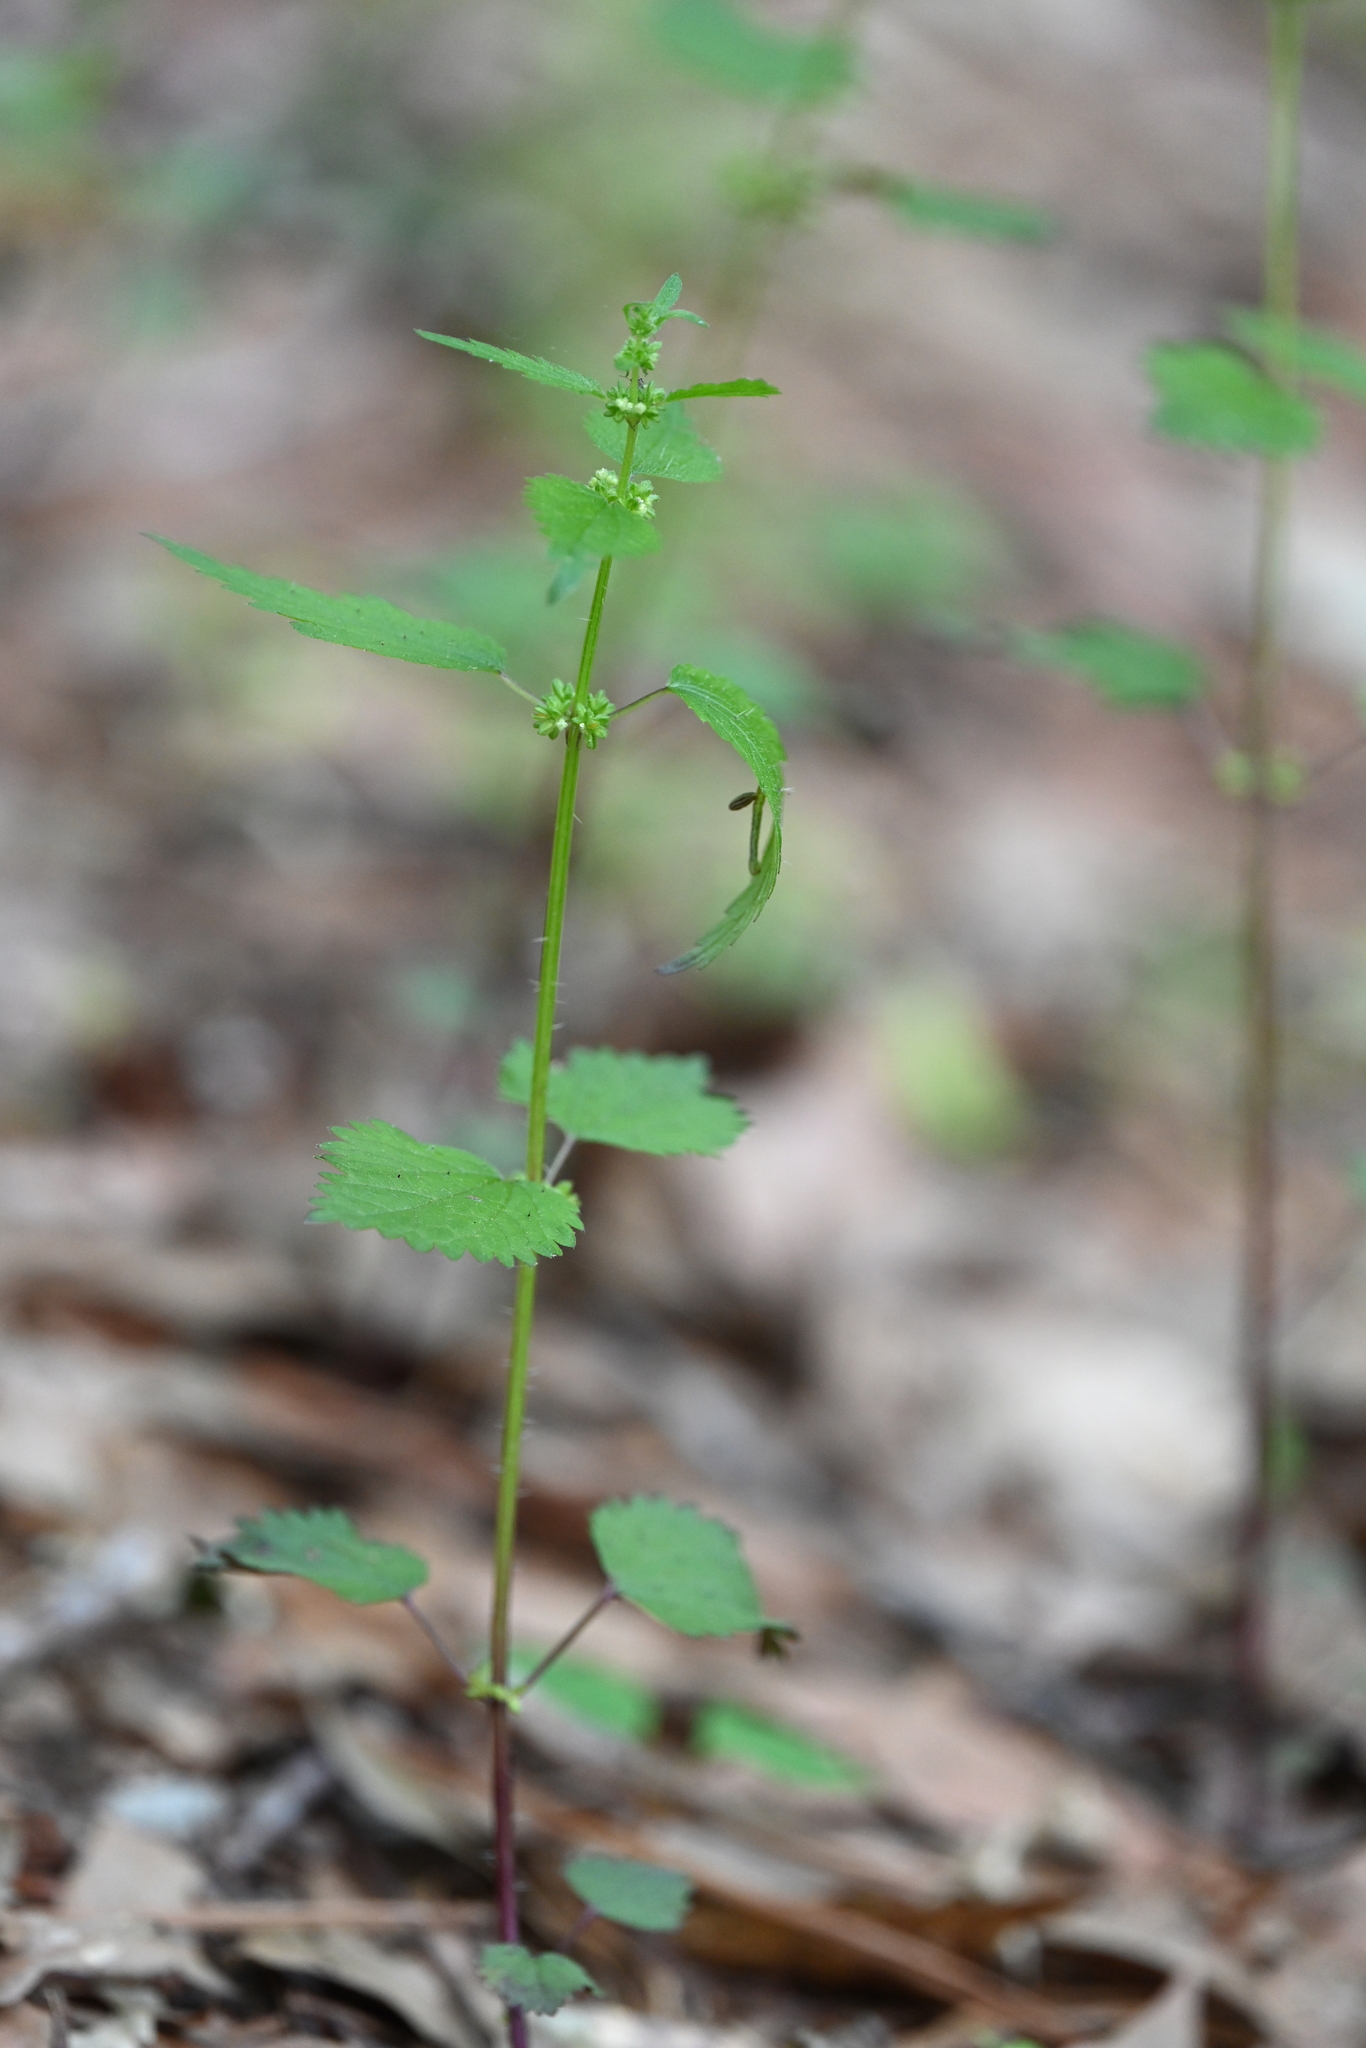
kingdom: Plantae
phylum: Tracheophyta
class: Magnoliopsida
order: Rosales
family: Urticaceae
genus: Urtica
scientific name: Urtica chamaedryoides
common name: Heart-leaf nettle
